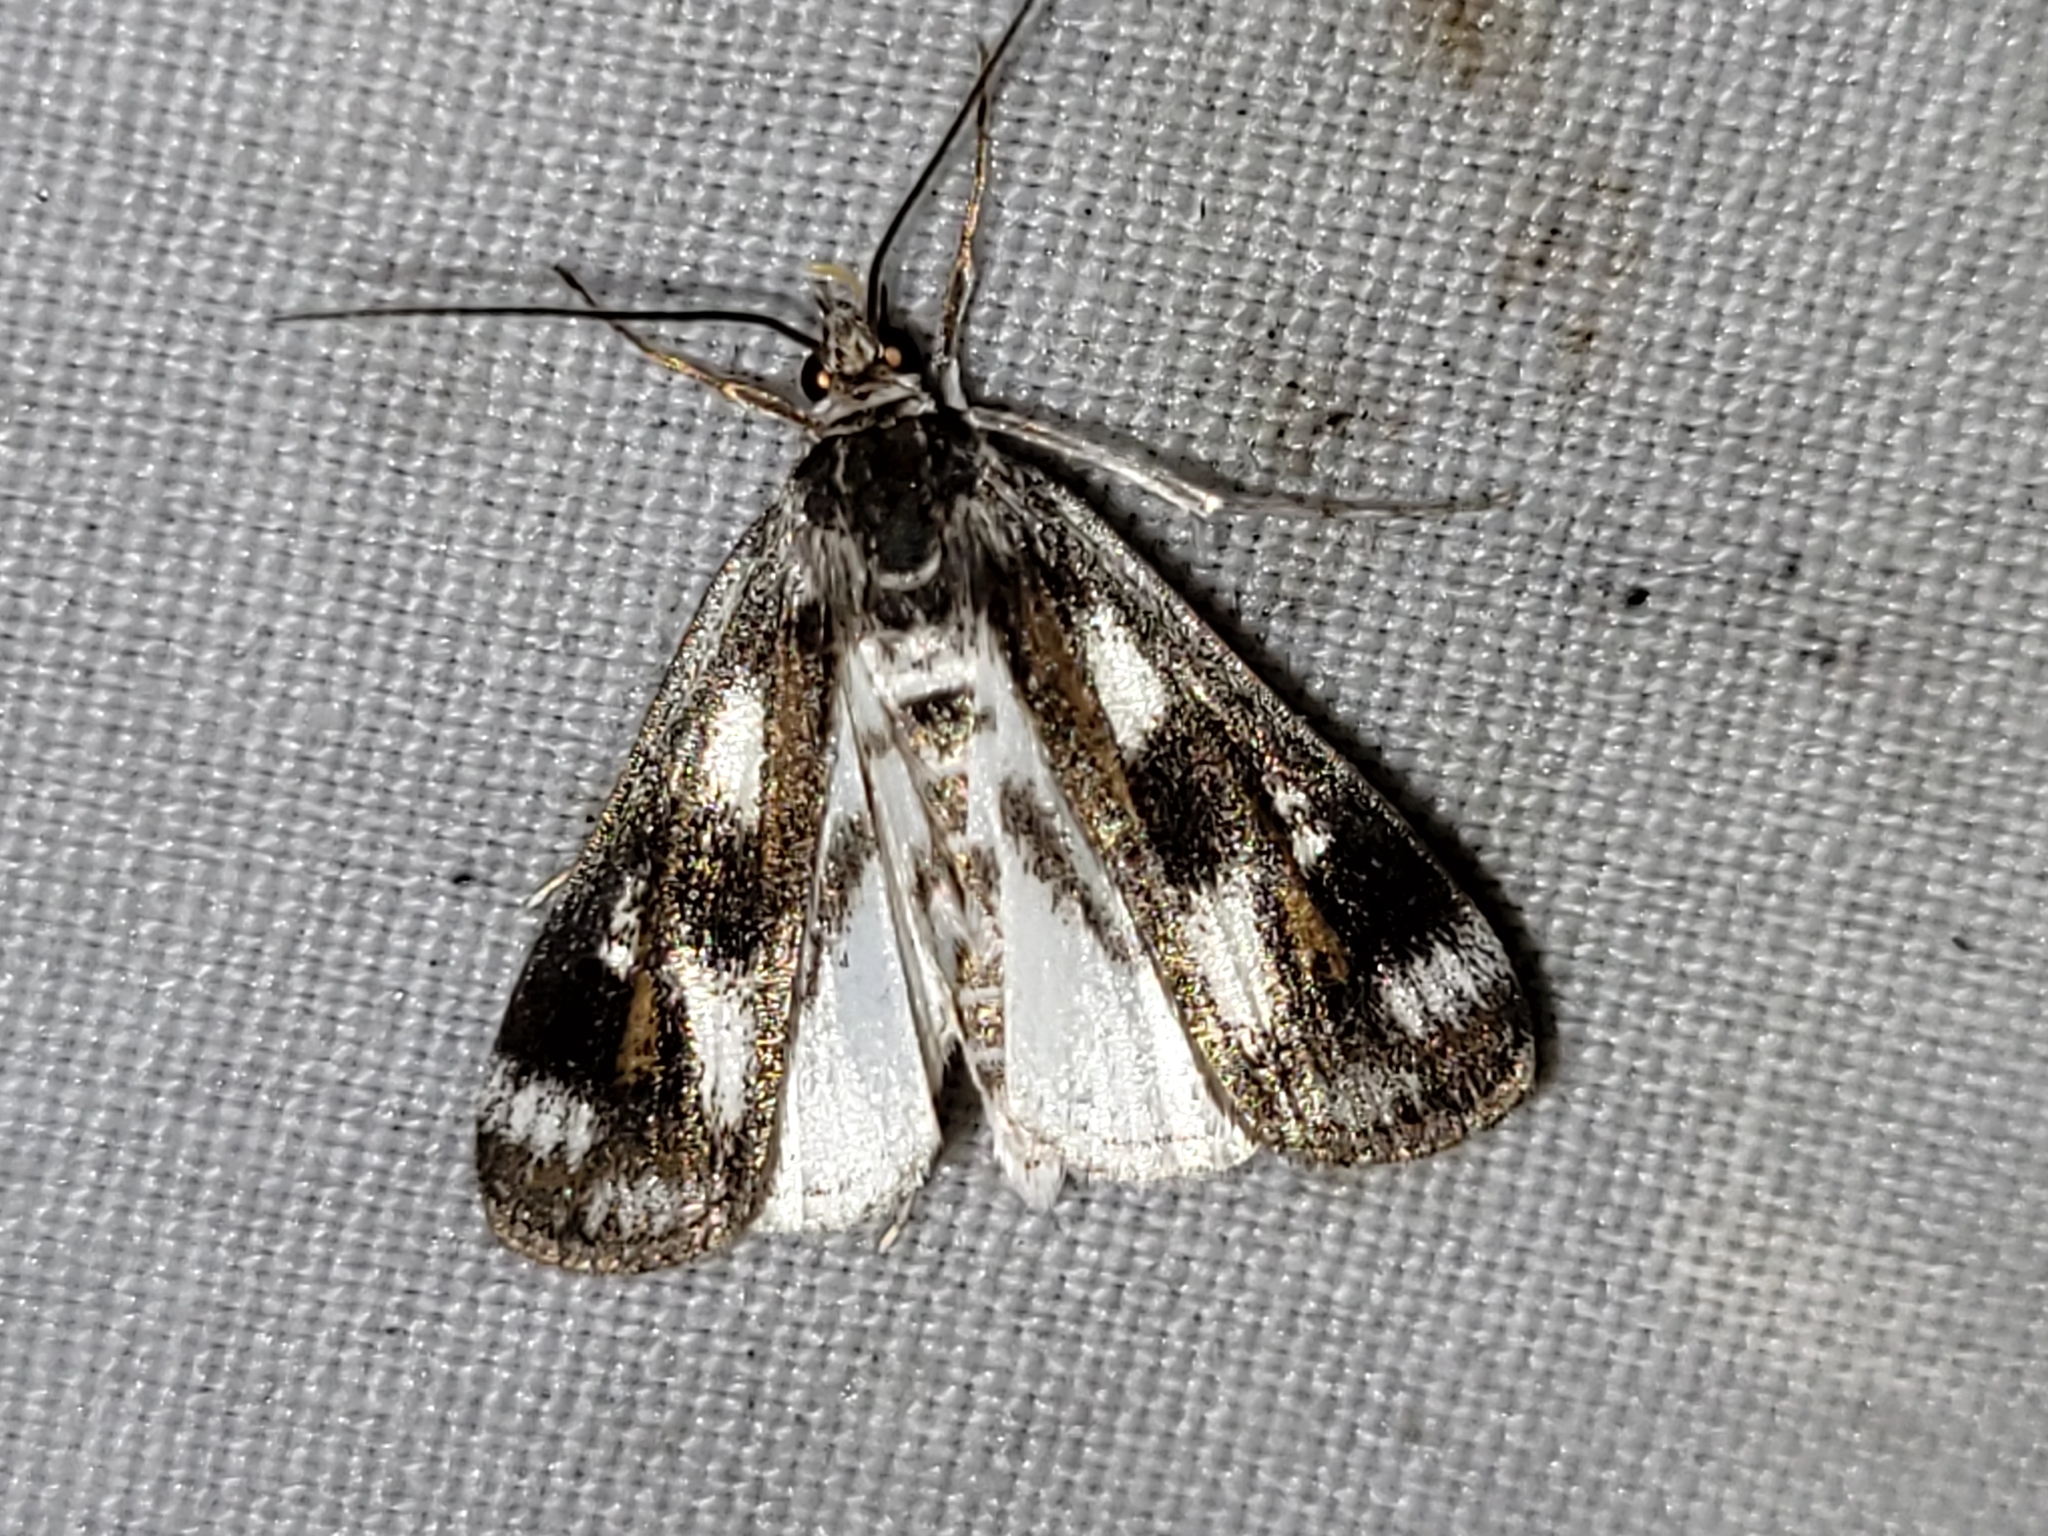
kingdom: Animalia
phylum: Arthropoda
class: Insecta
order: Lepidoptera
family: Crambidae
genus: Parapoynx
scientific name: Parapoynx maculalis
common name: Polymorphic pondweed moth
